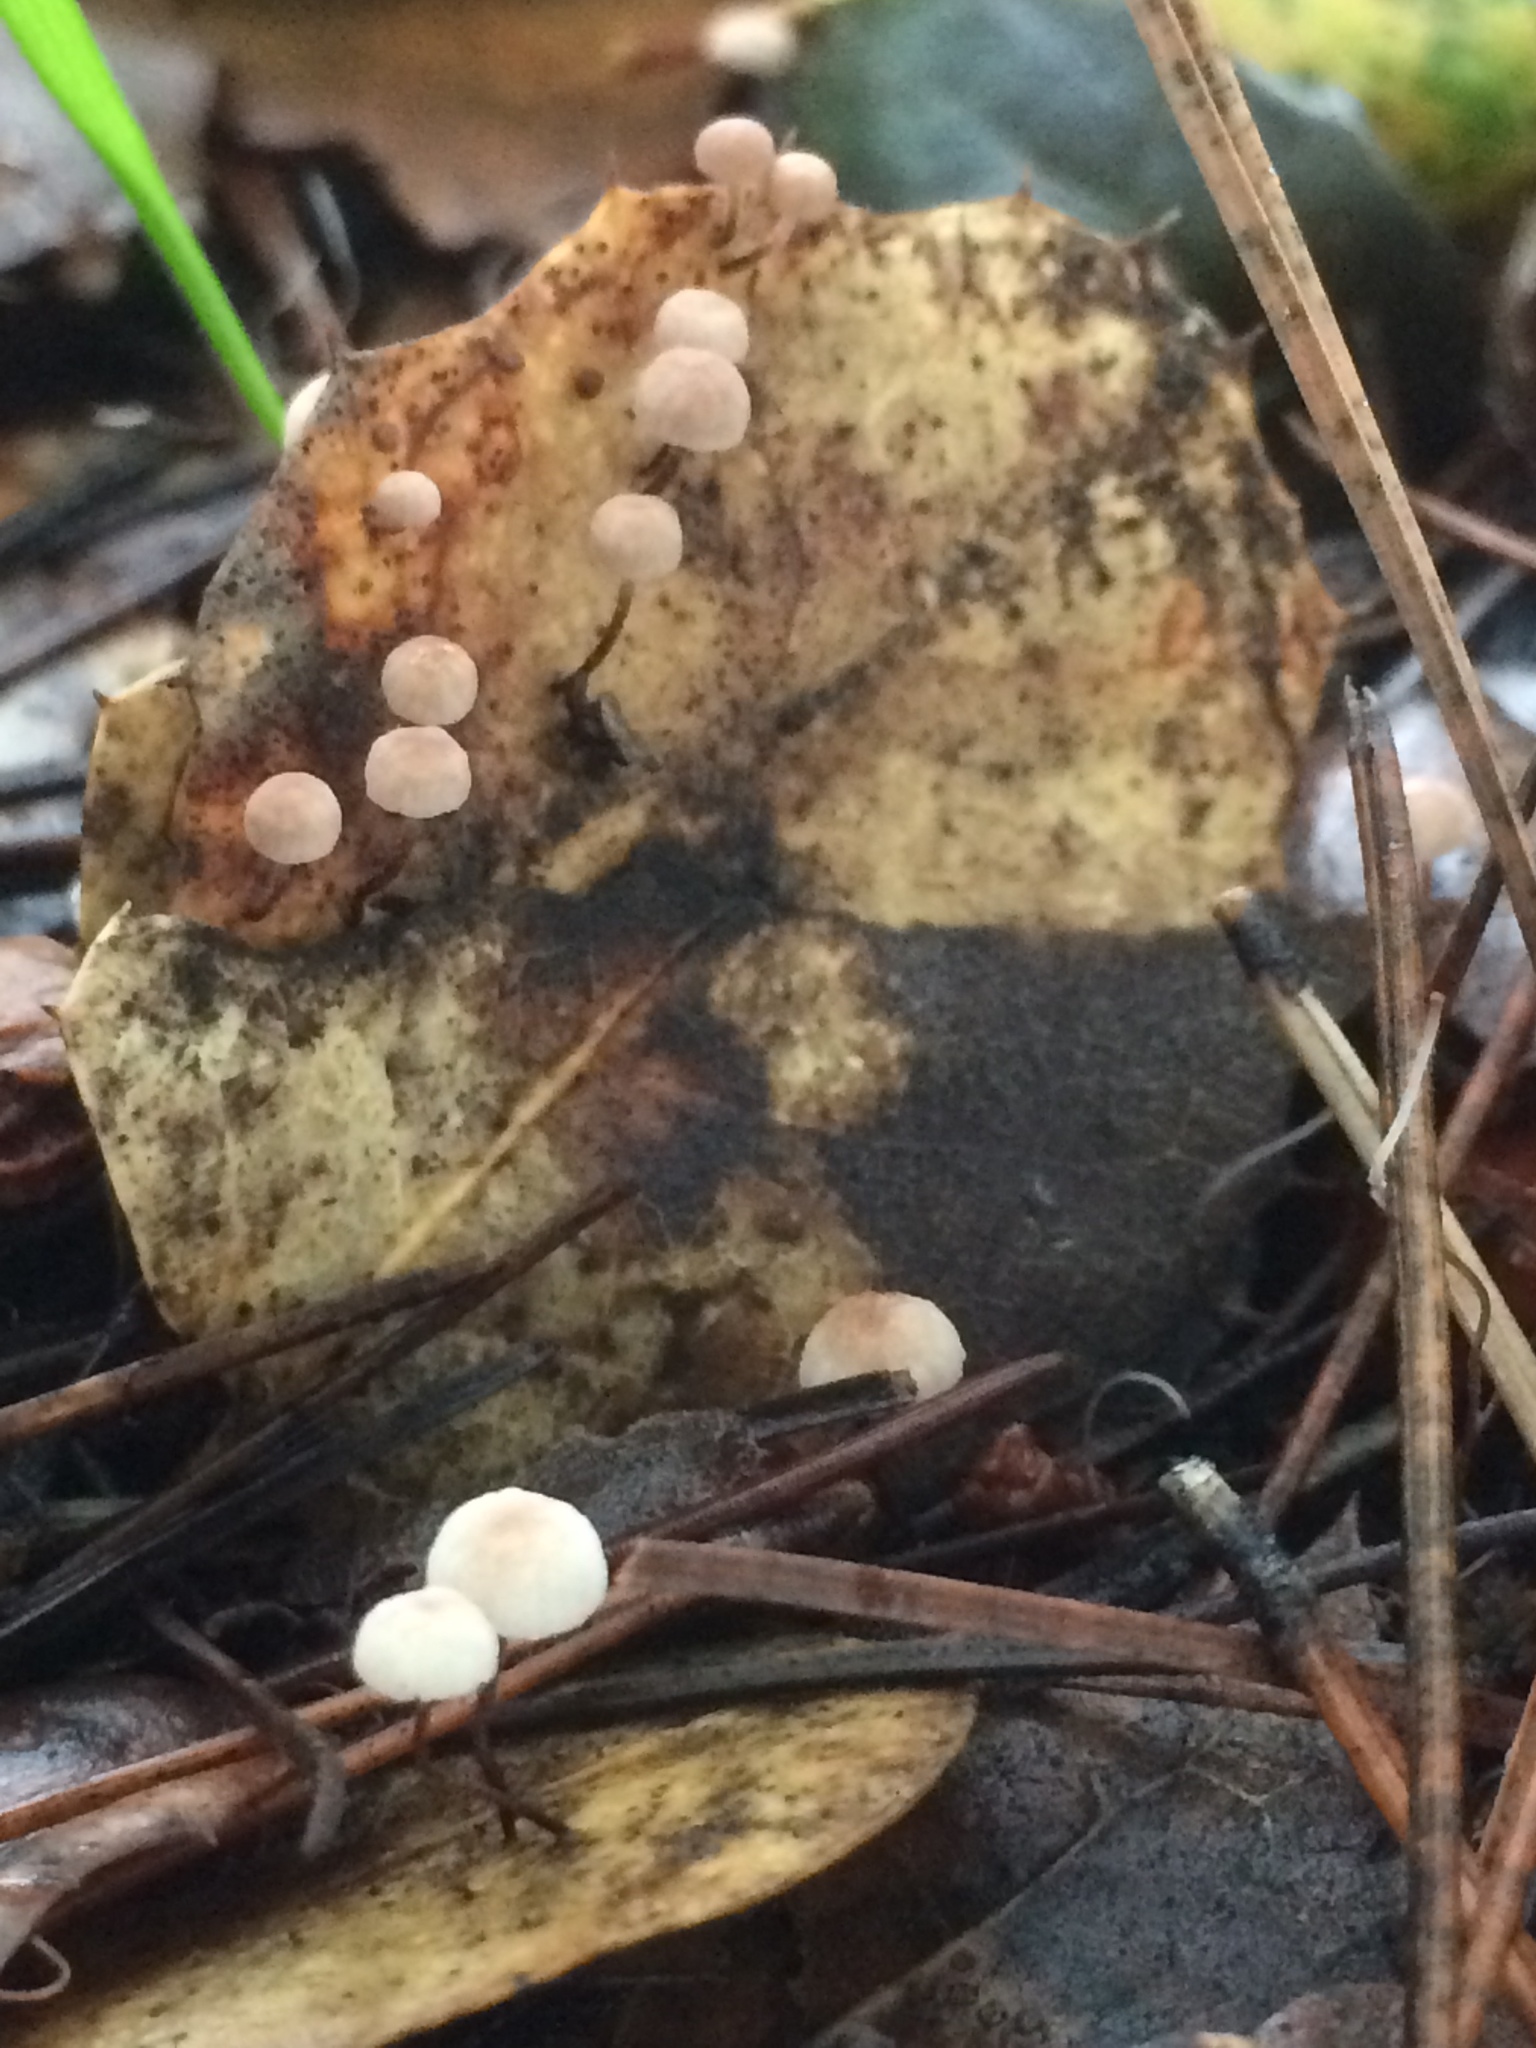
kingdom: Fungi
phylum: Basidiomycota
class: Agaricomycetes
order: Agaricales
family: Omphalotaceae
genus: Collybiopsis
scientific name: Collybiopsis quercophila
